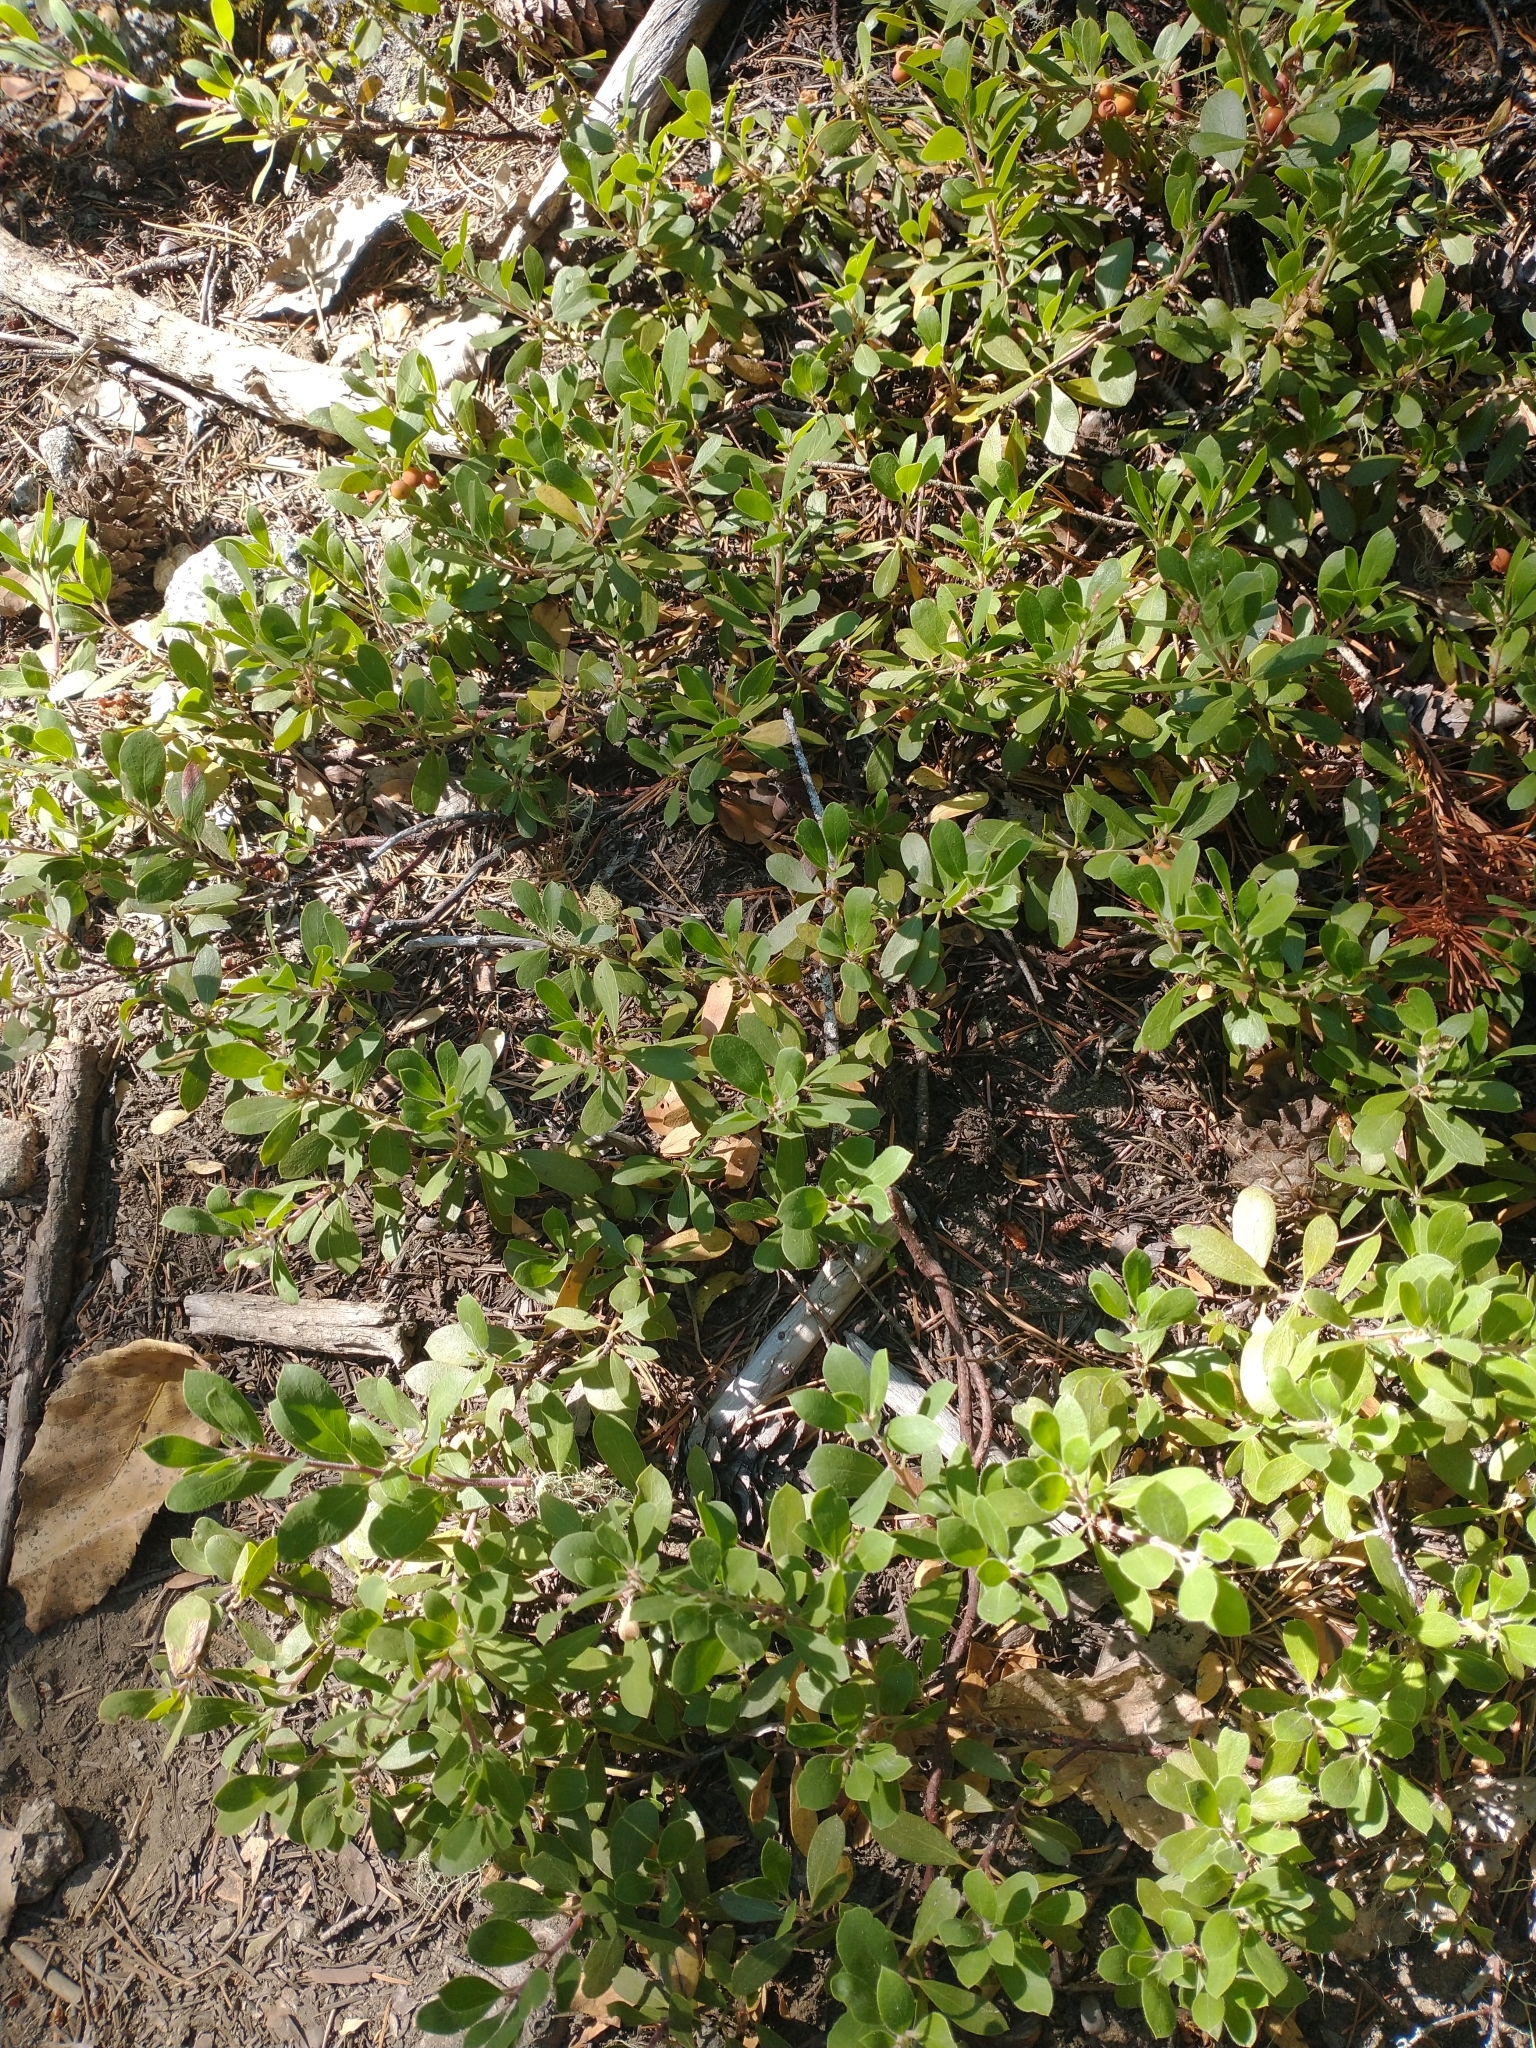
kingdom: Plantae
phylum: Tracheophyta
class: Magnoliopsida
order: Ericales
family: Ericaceae
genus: Arctostaphylos
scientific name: Arctostaphylos nevadensis
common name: Pinemat manzanita
